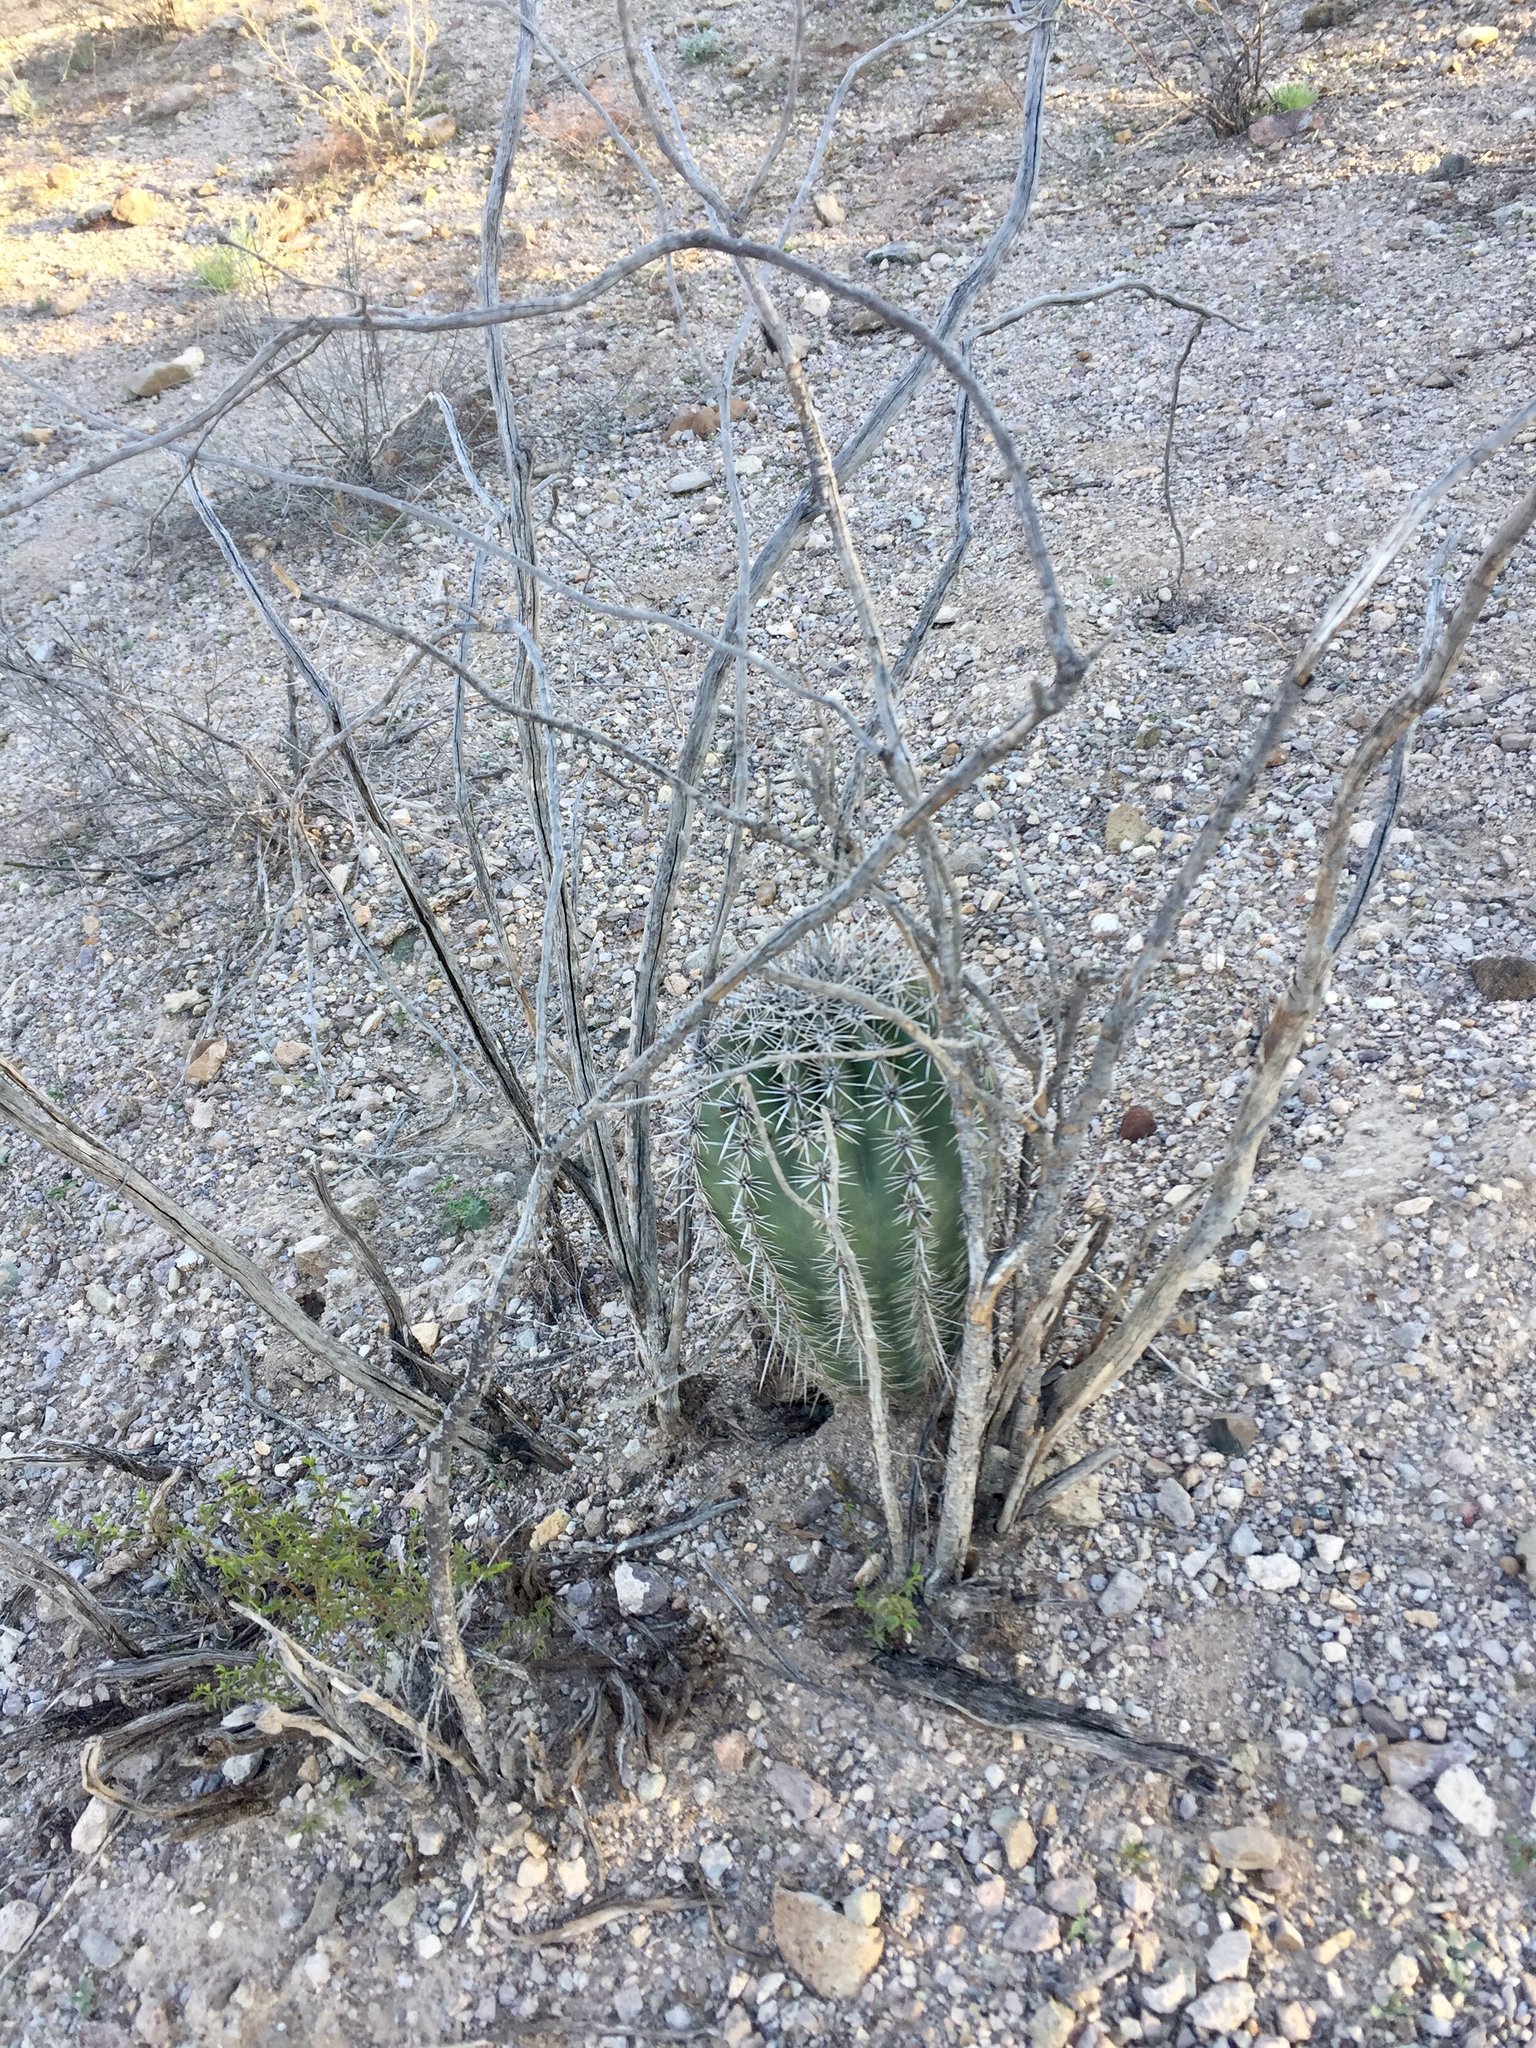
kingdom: Plantae
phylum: Tracheophyta
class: Magnoliopsida
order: Caryophyllales
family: Cactaceae
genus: Carnegiea
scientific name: Carnegiea gigantea
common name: Saguaro
